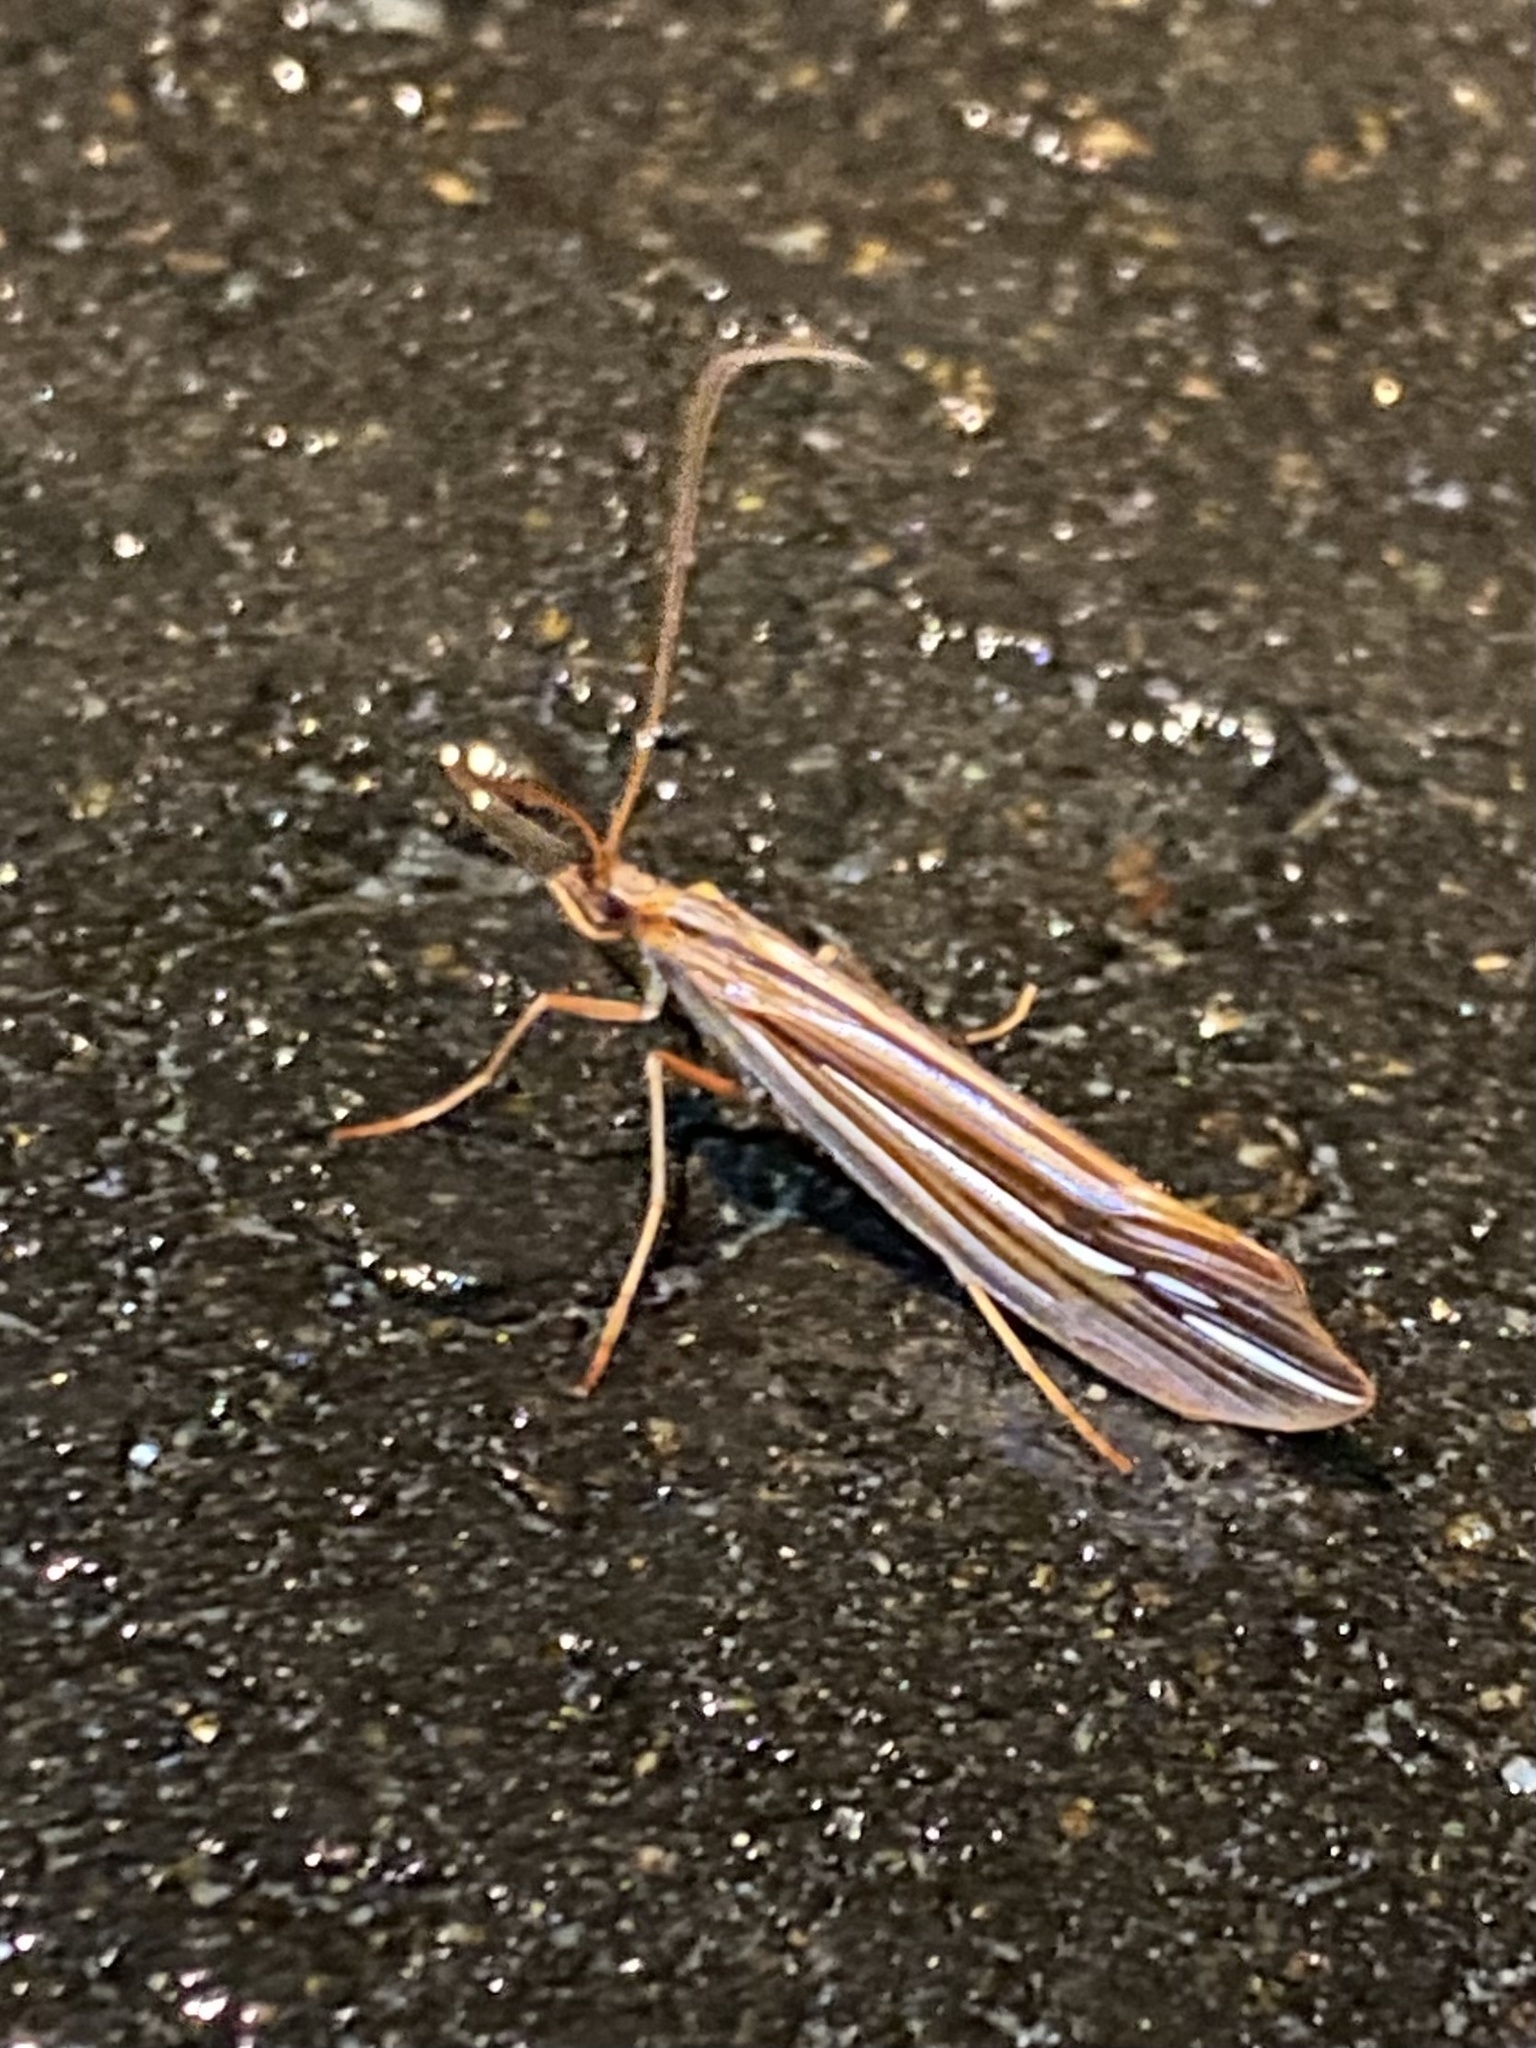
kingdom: Animalia
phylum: Arthropoda
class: Insecta
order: Trichoptera
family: Limnephilidae
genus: Psychoglypha
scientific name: Psychoglypha bella
